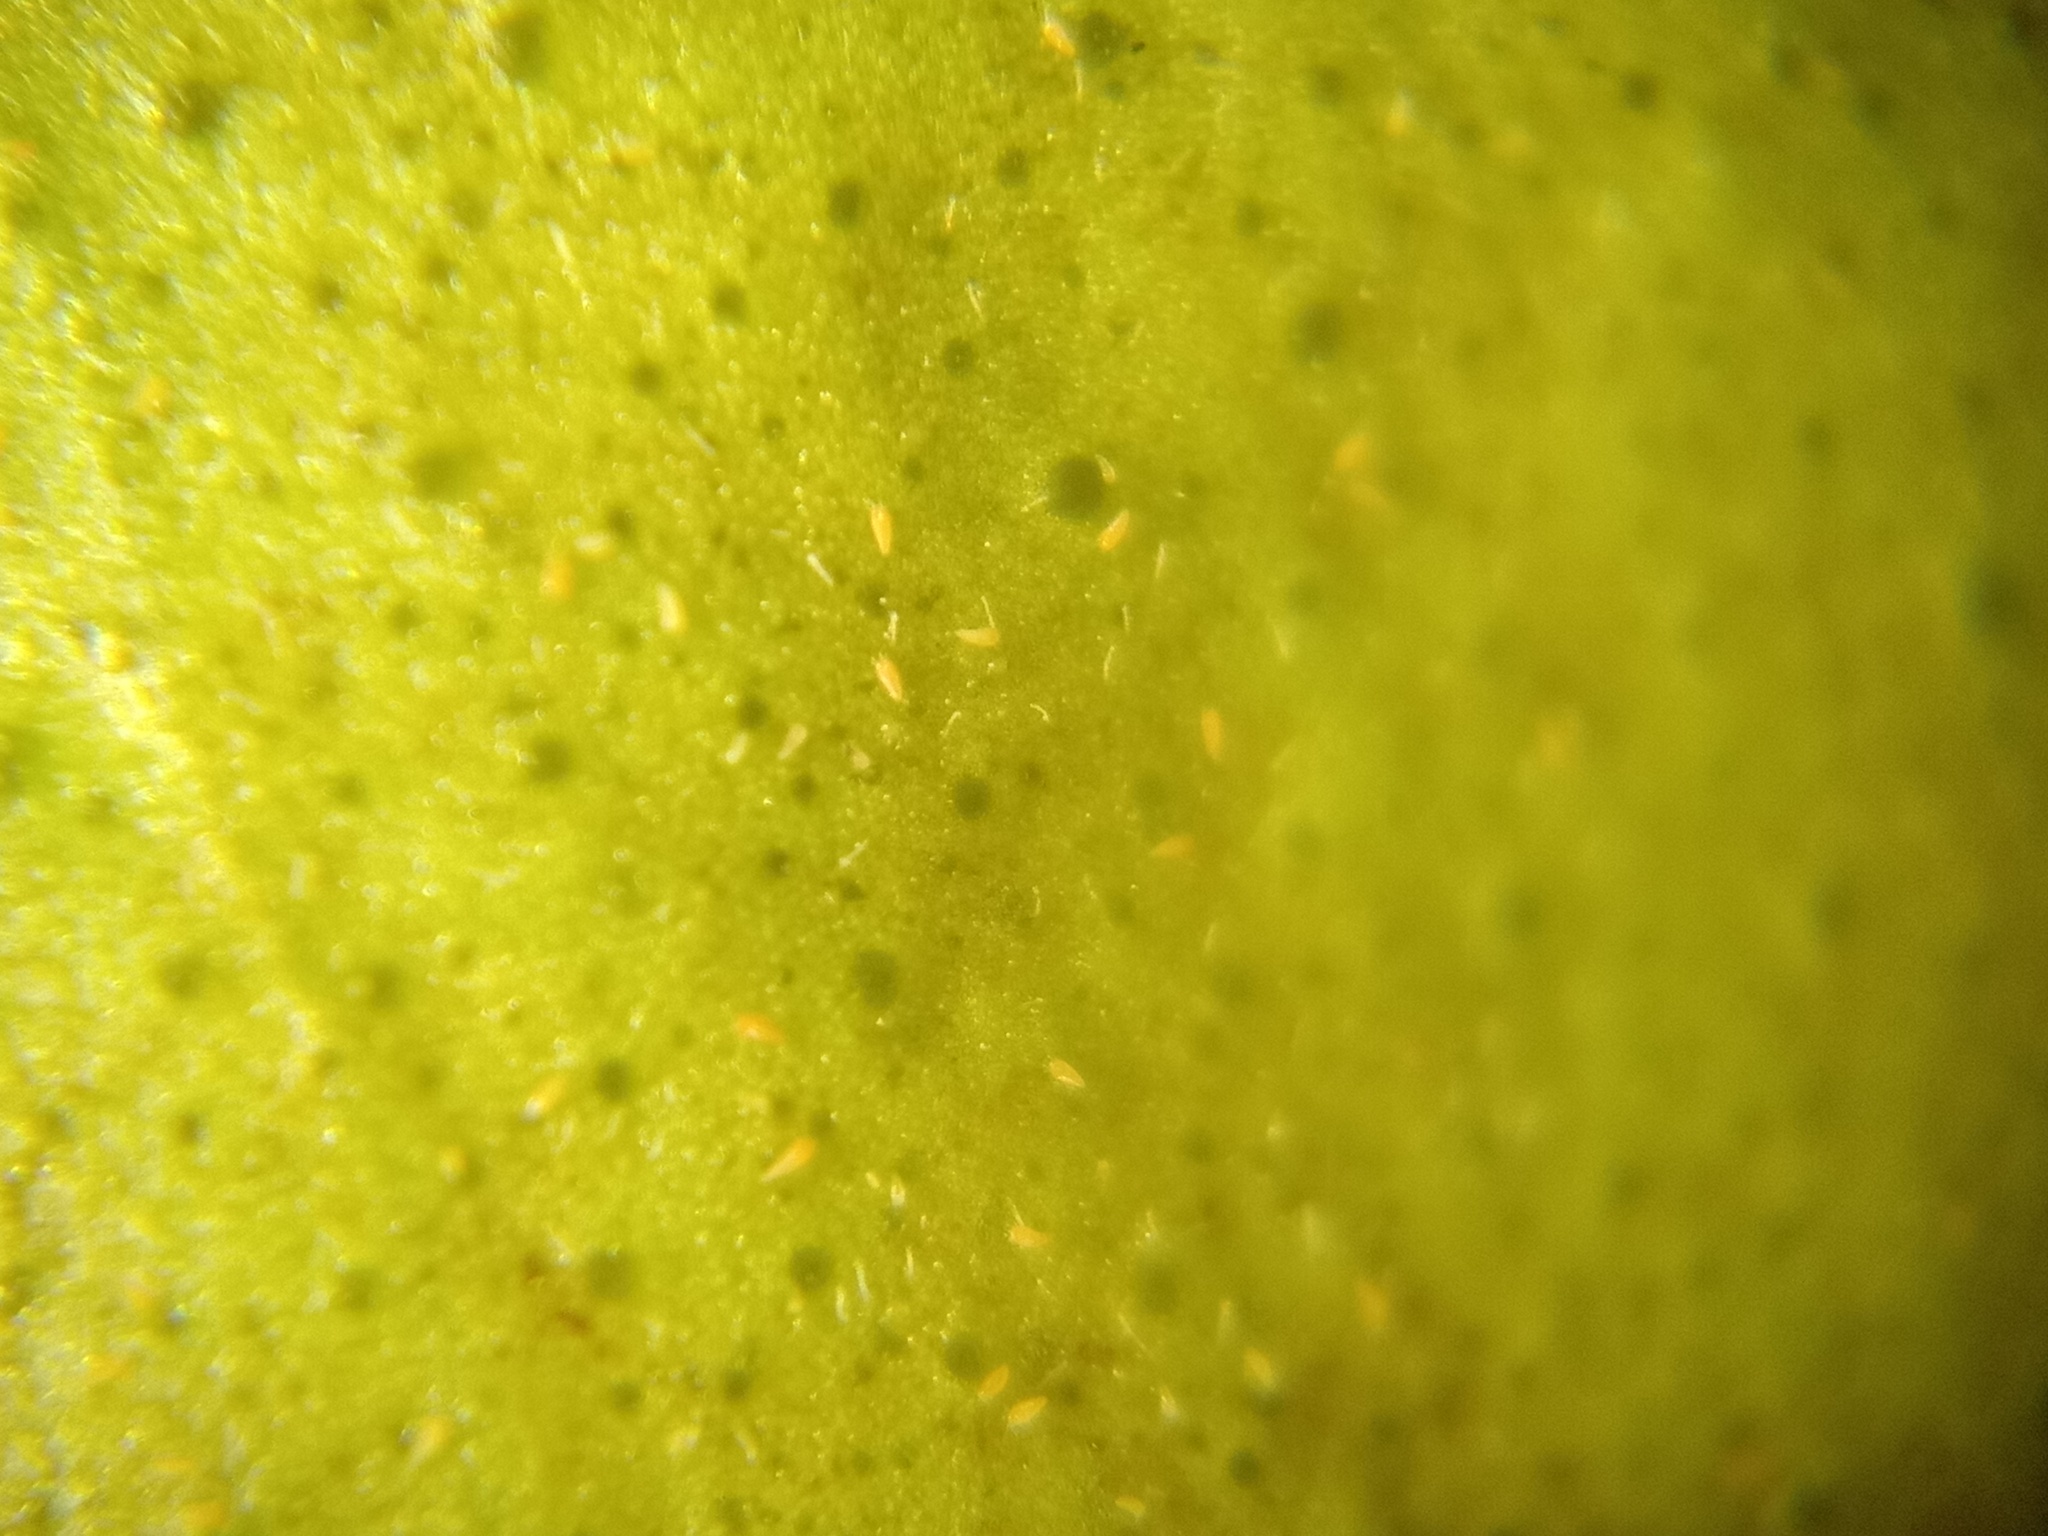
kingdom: Animalia
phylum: Arthropoda
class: Arachnida
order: Trombidiformes
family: Eriophyidae
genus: Phyllocoptruta
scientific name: Phyllocoptruta oleivora
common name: Citrus rust mite
